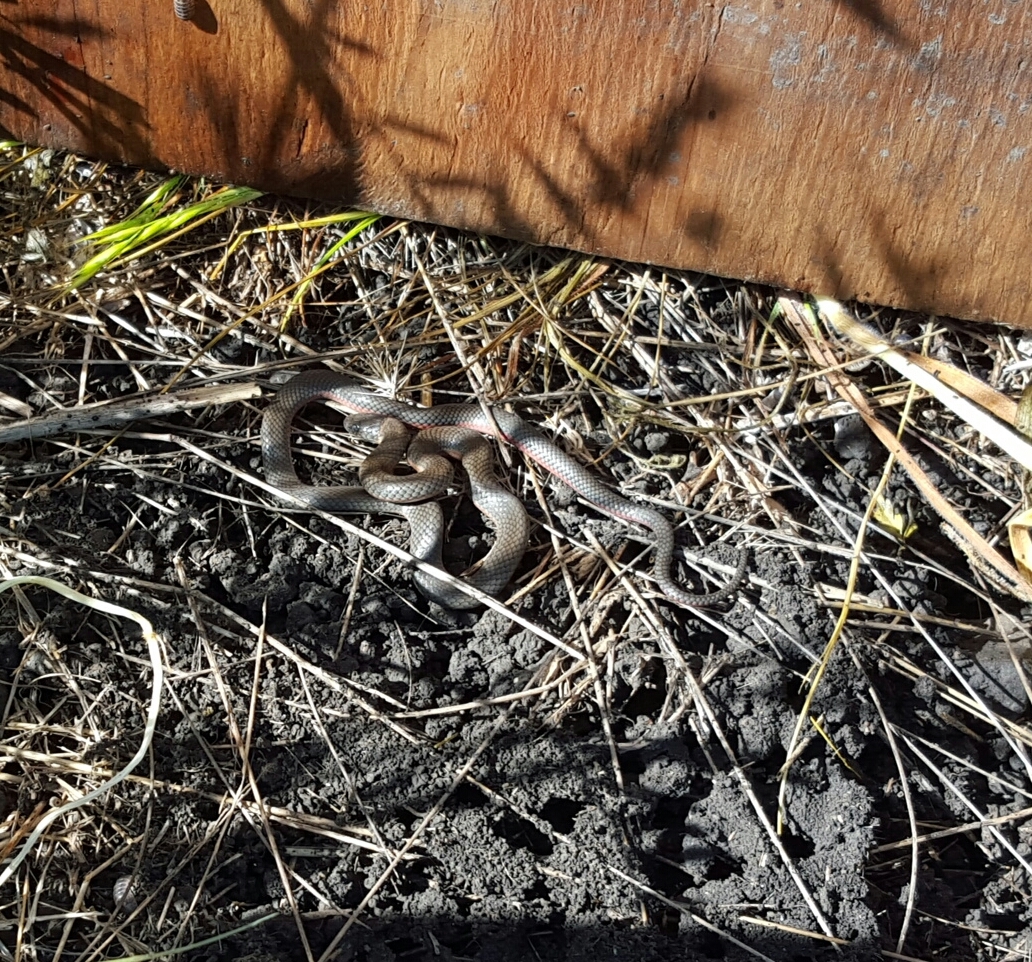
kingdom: Animalia
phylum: Chordata
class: Squamata
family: Colubridae
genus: Diadophis
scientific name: Diadophis punctatus
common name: Ringneck snake
